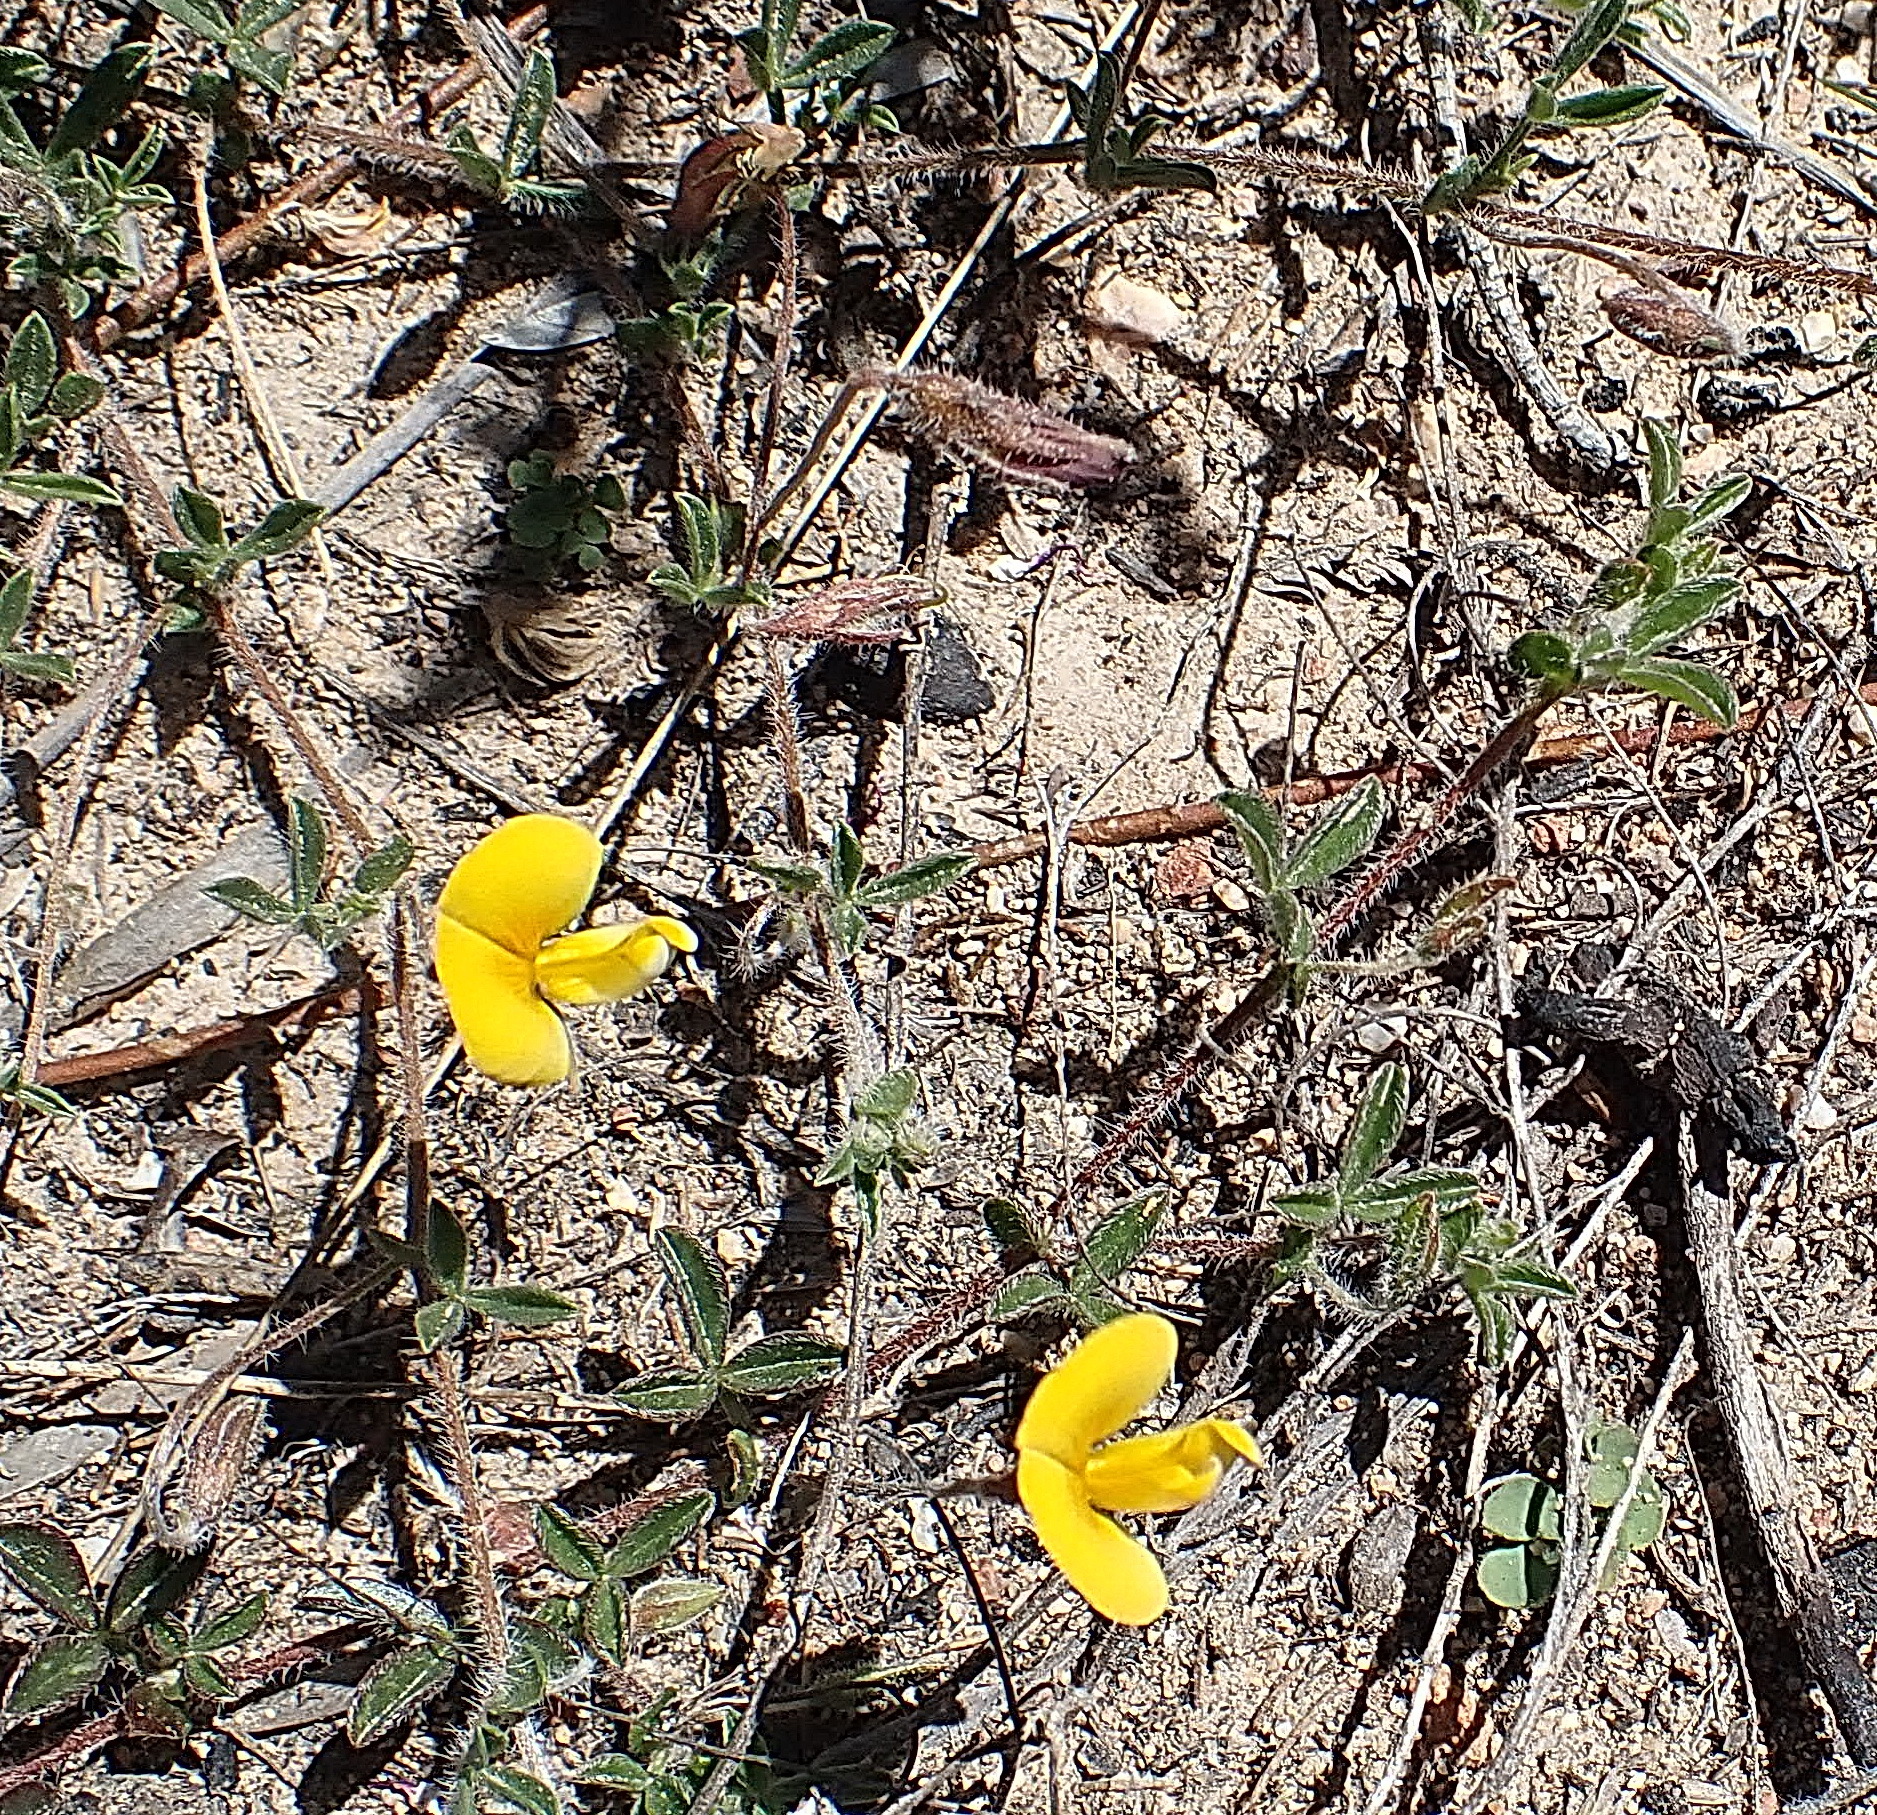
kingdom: Plantae
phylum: Tracheophyta
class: Magnoliopsida
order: Fabales
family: Fabaceae
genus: Lotononis
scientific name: Lotononis elongata
